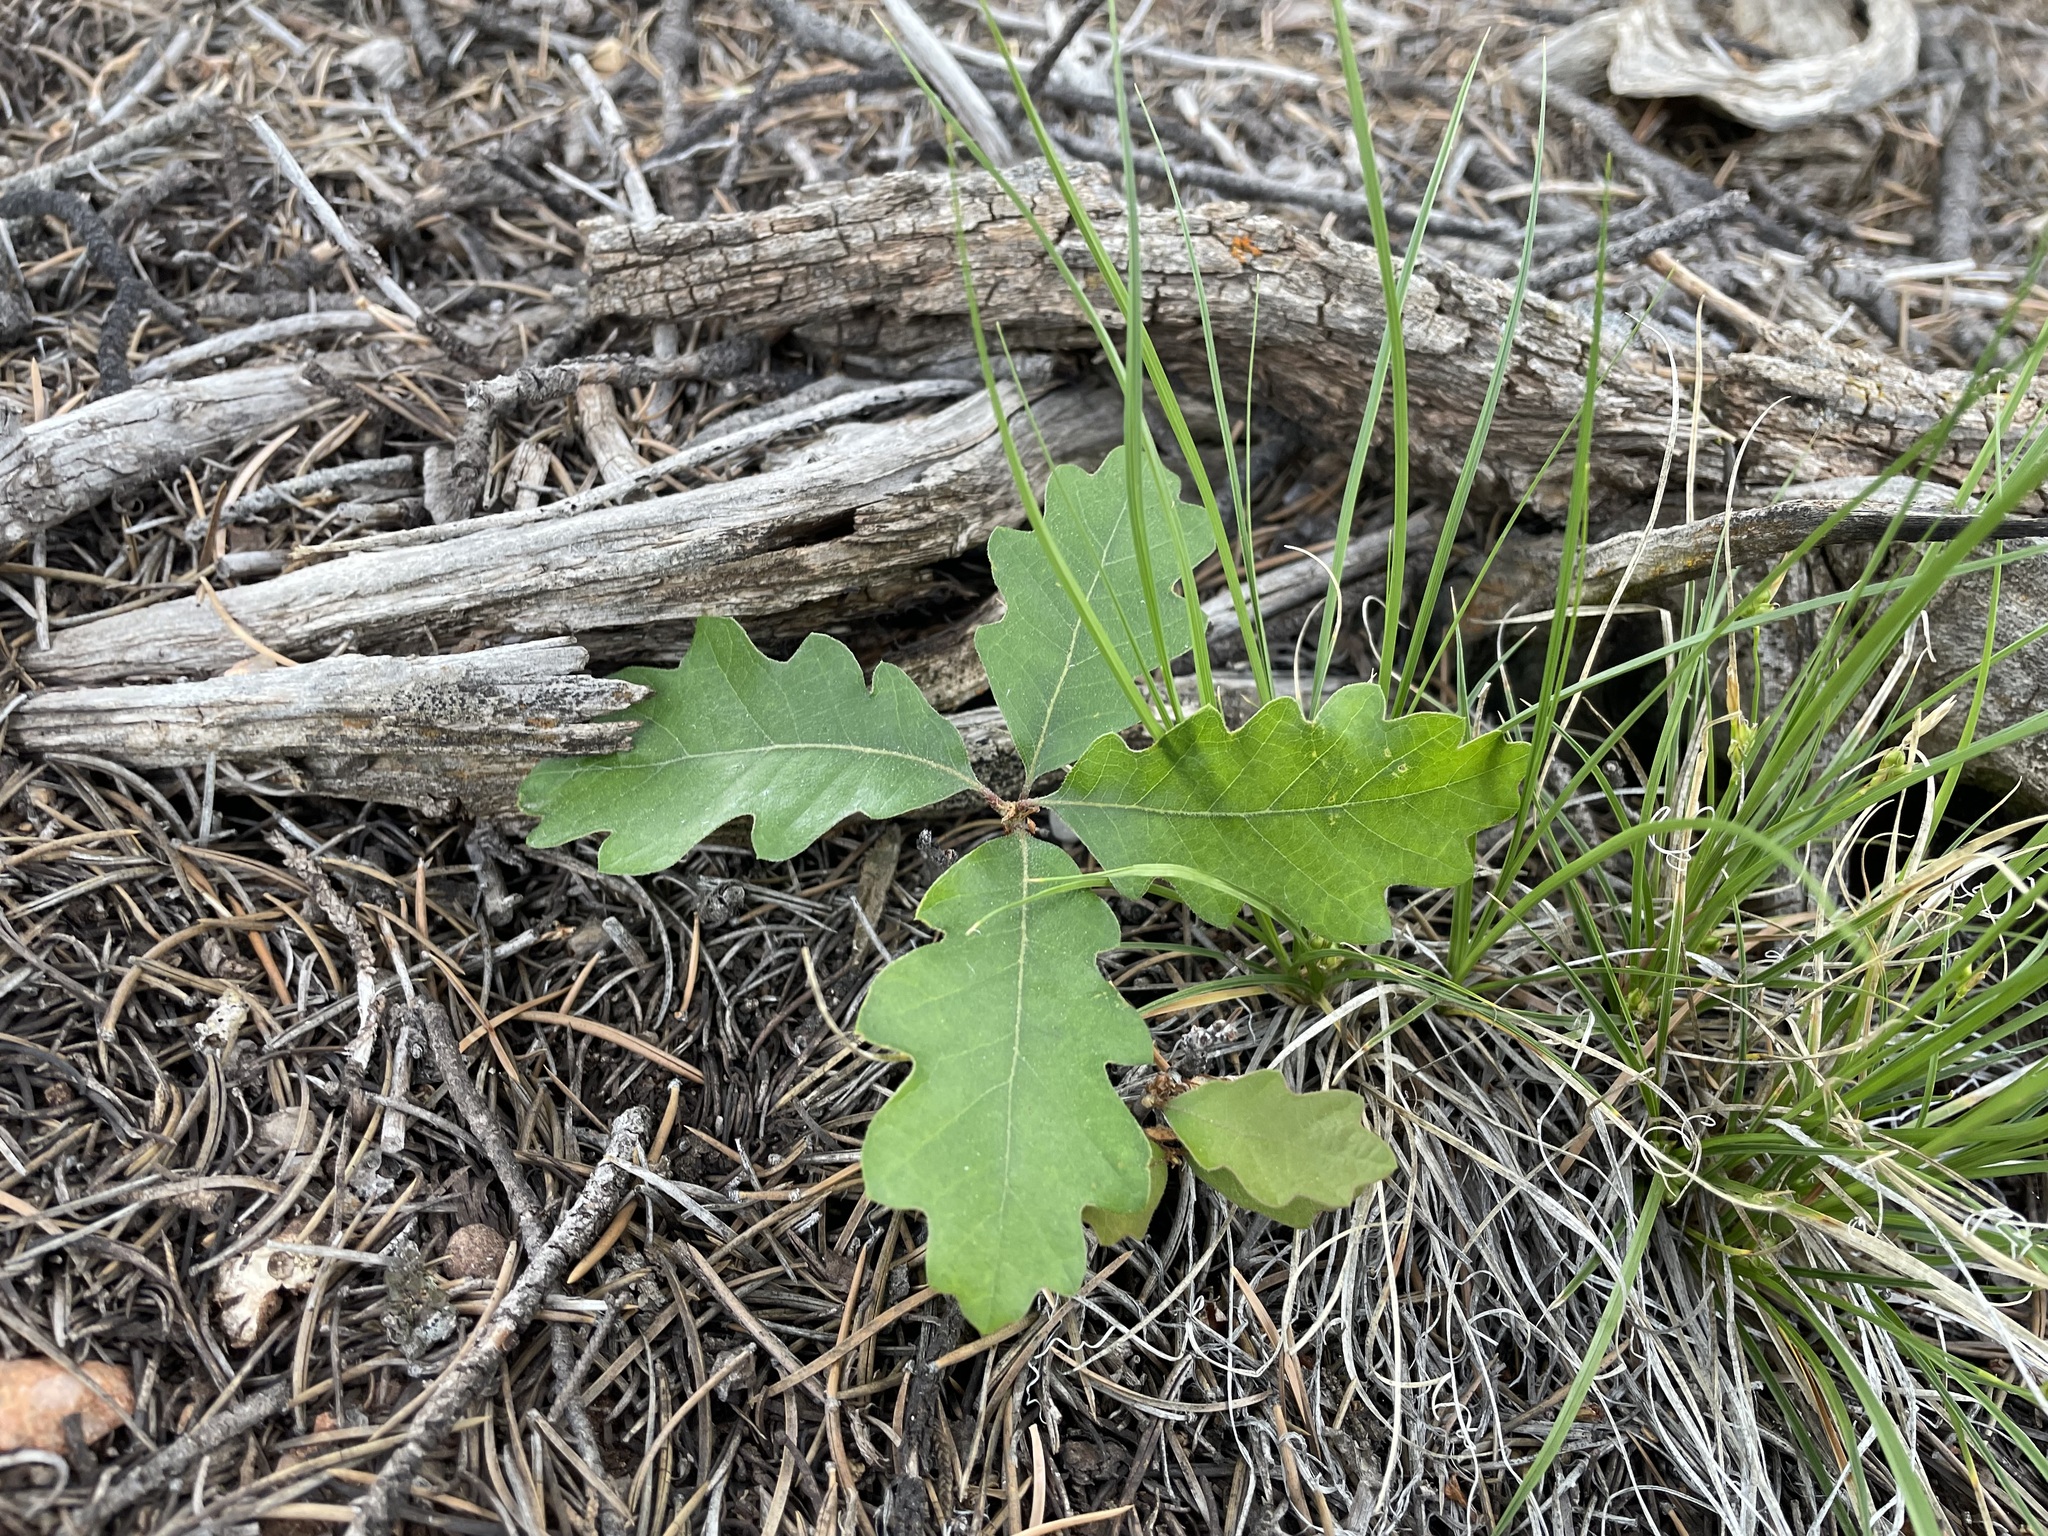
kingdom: Plantae
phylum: Tracheophyta
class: Magnoliopsida
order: Fagales
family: Fagaceae
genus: Quercus
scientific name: Quercus gambelii
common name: Gambel oak
